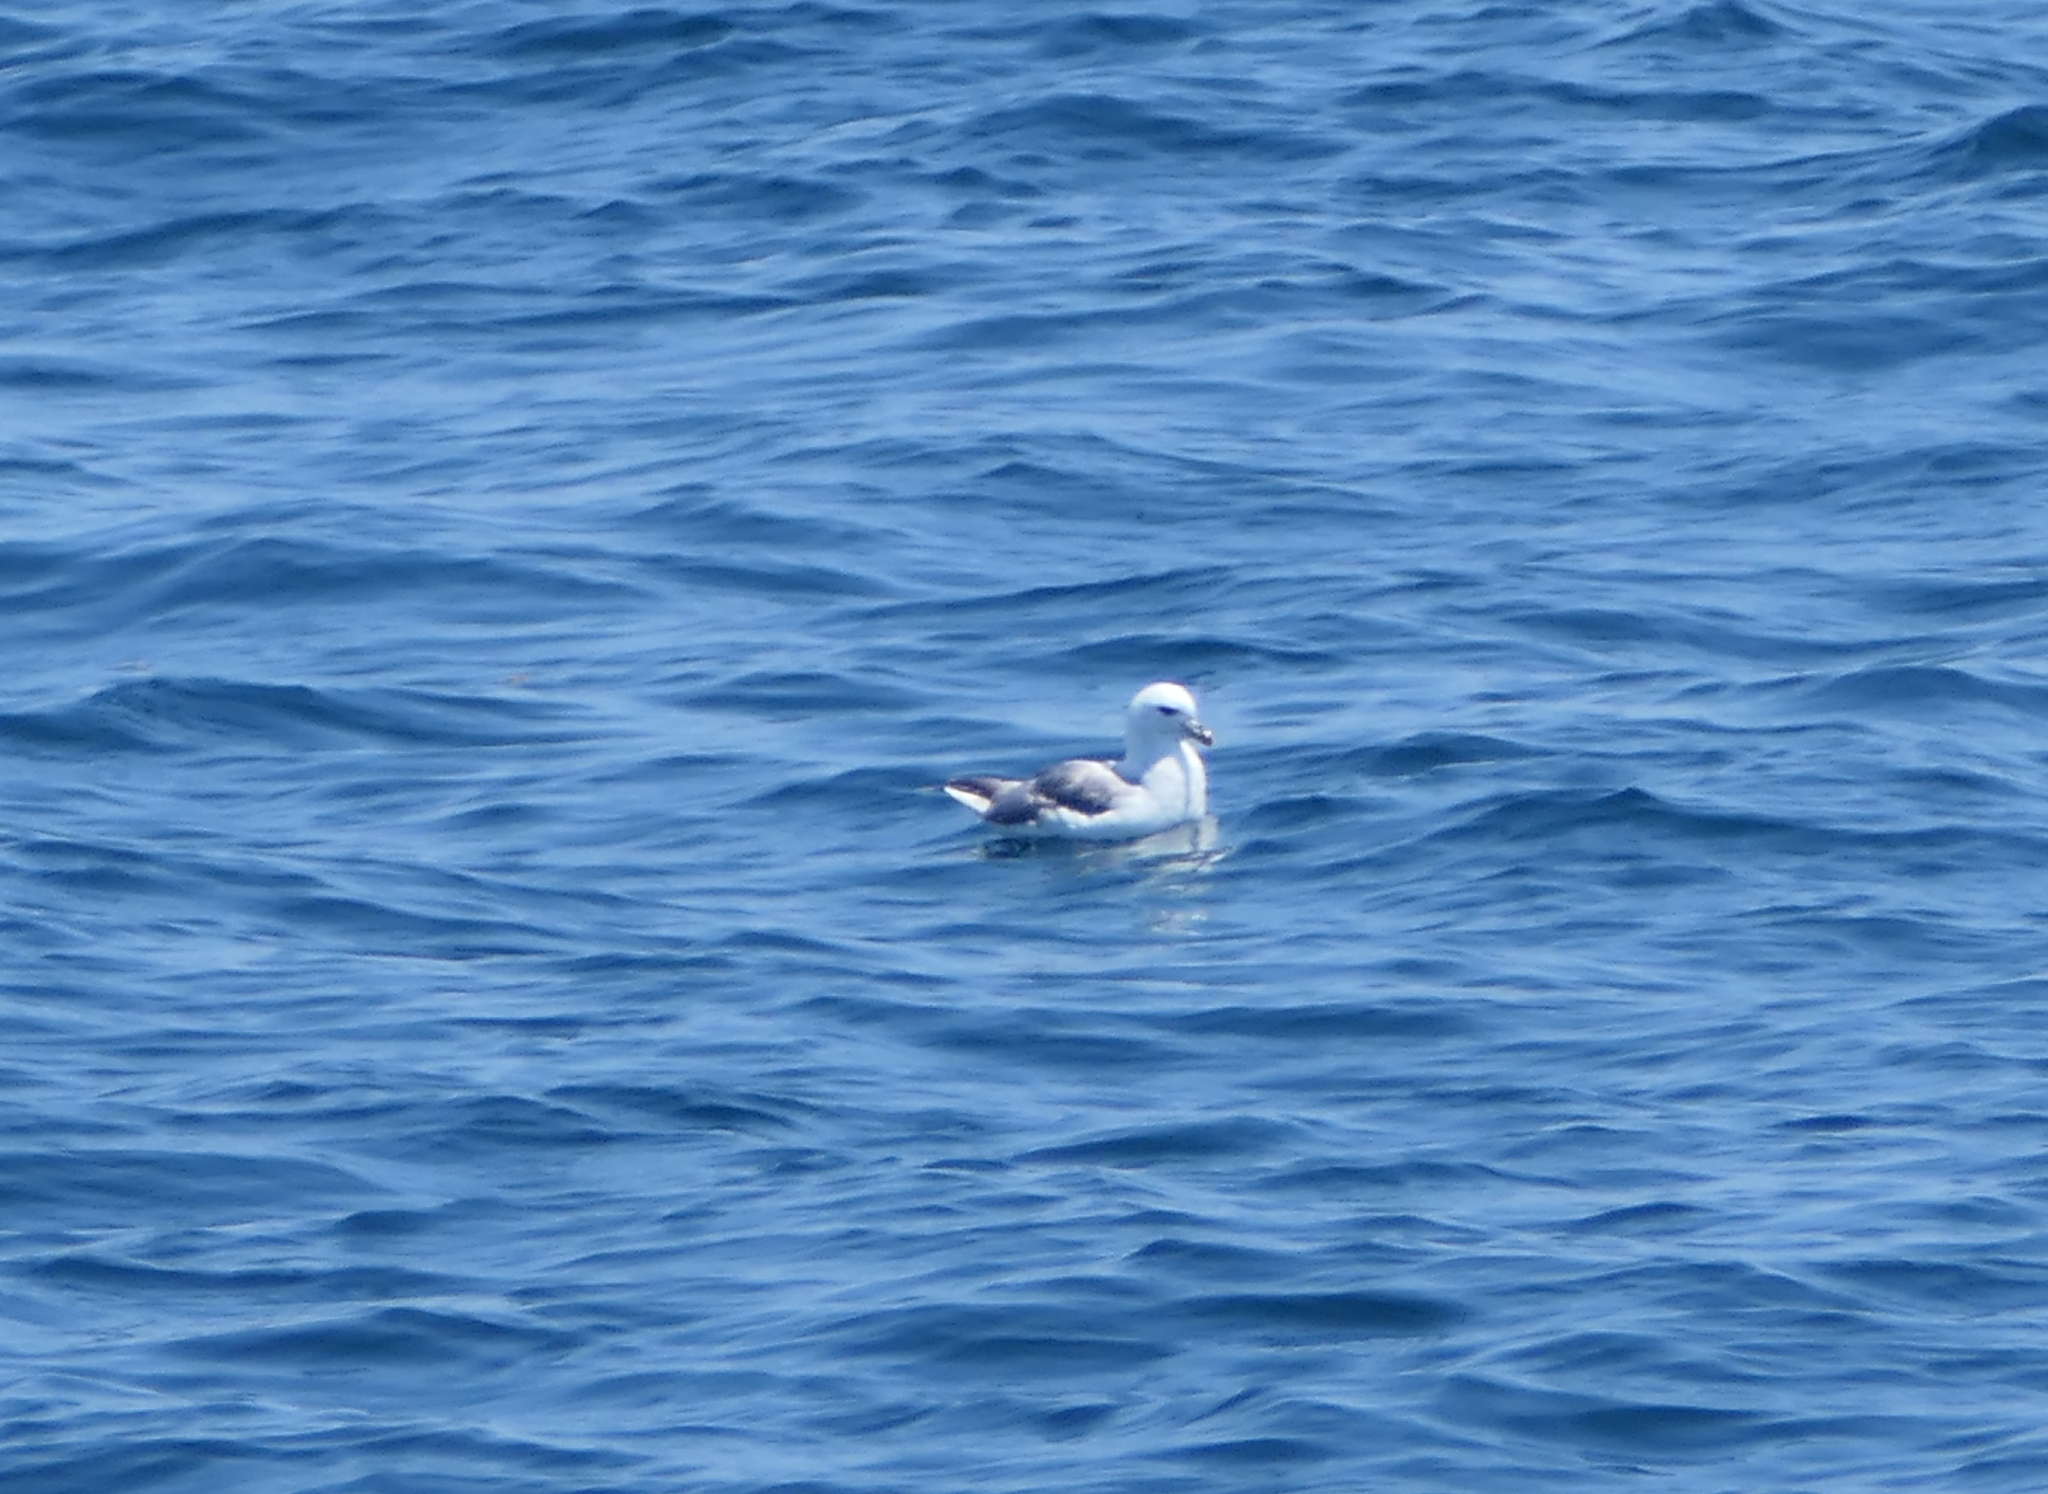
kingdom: Animalia
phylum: Chordata
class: Aves
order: Procellariiformes
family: Procellariidae
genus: Fulmarus
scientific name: Fulmarus glacialis
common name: Northern fulmar
